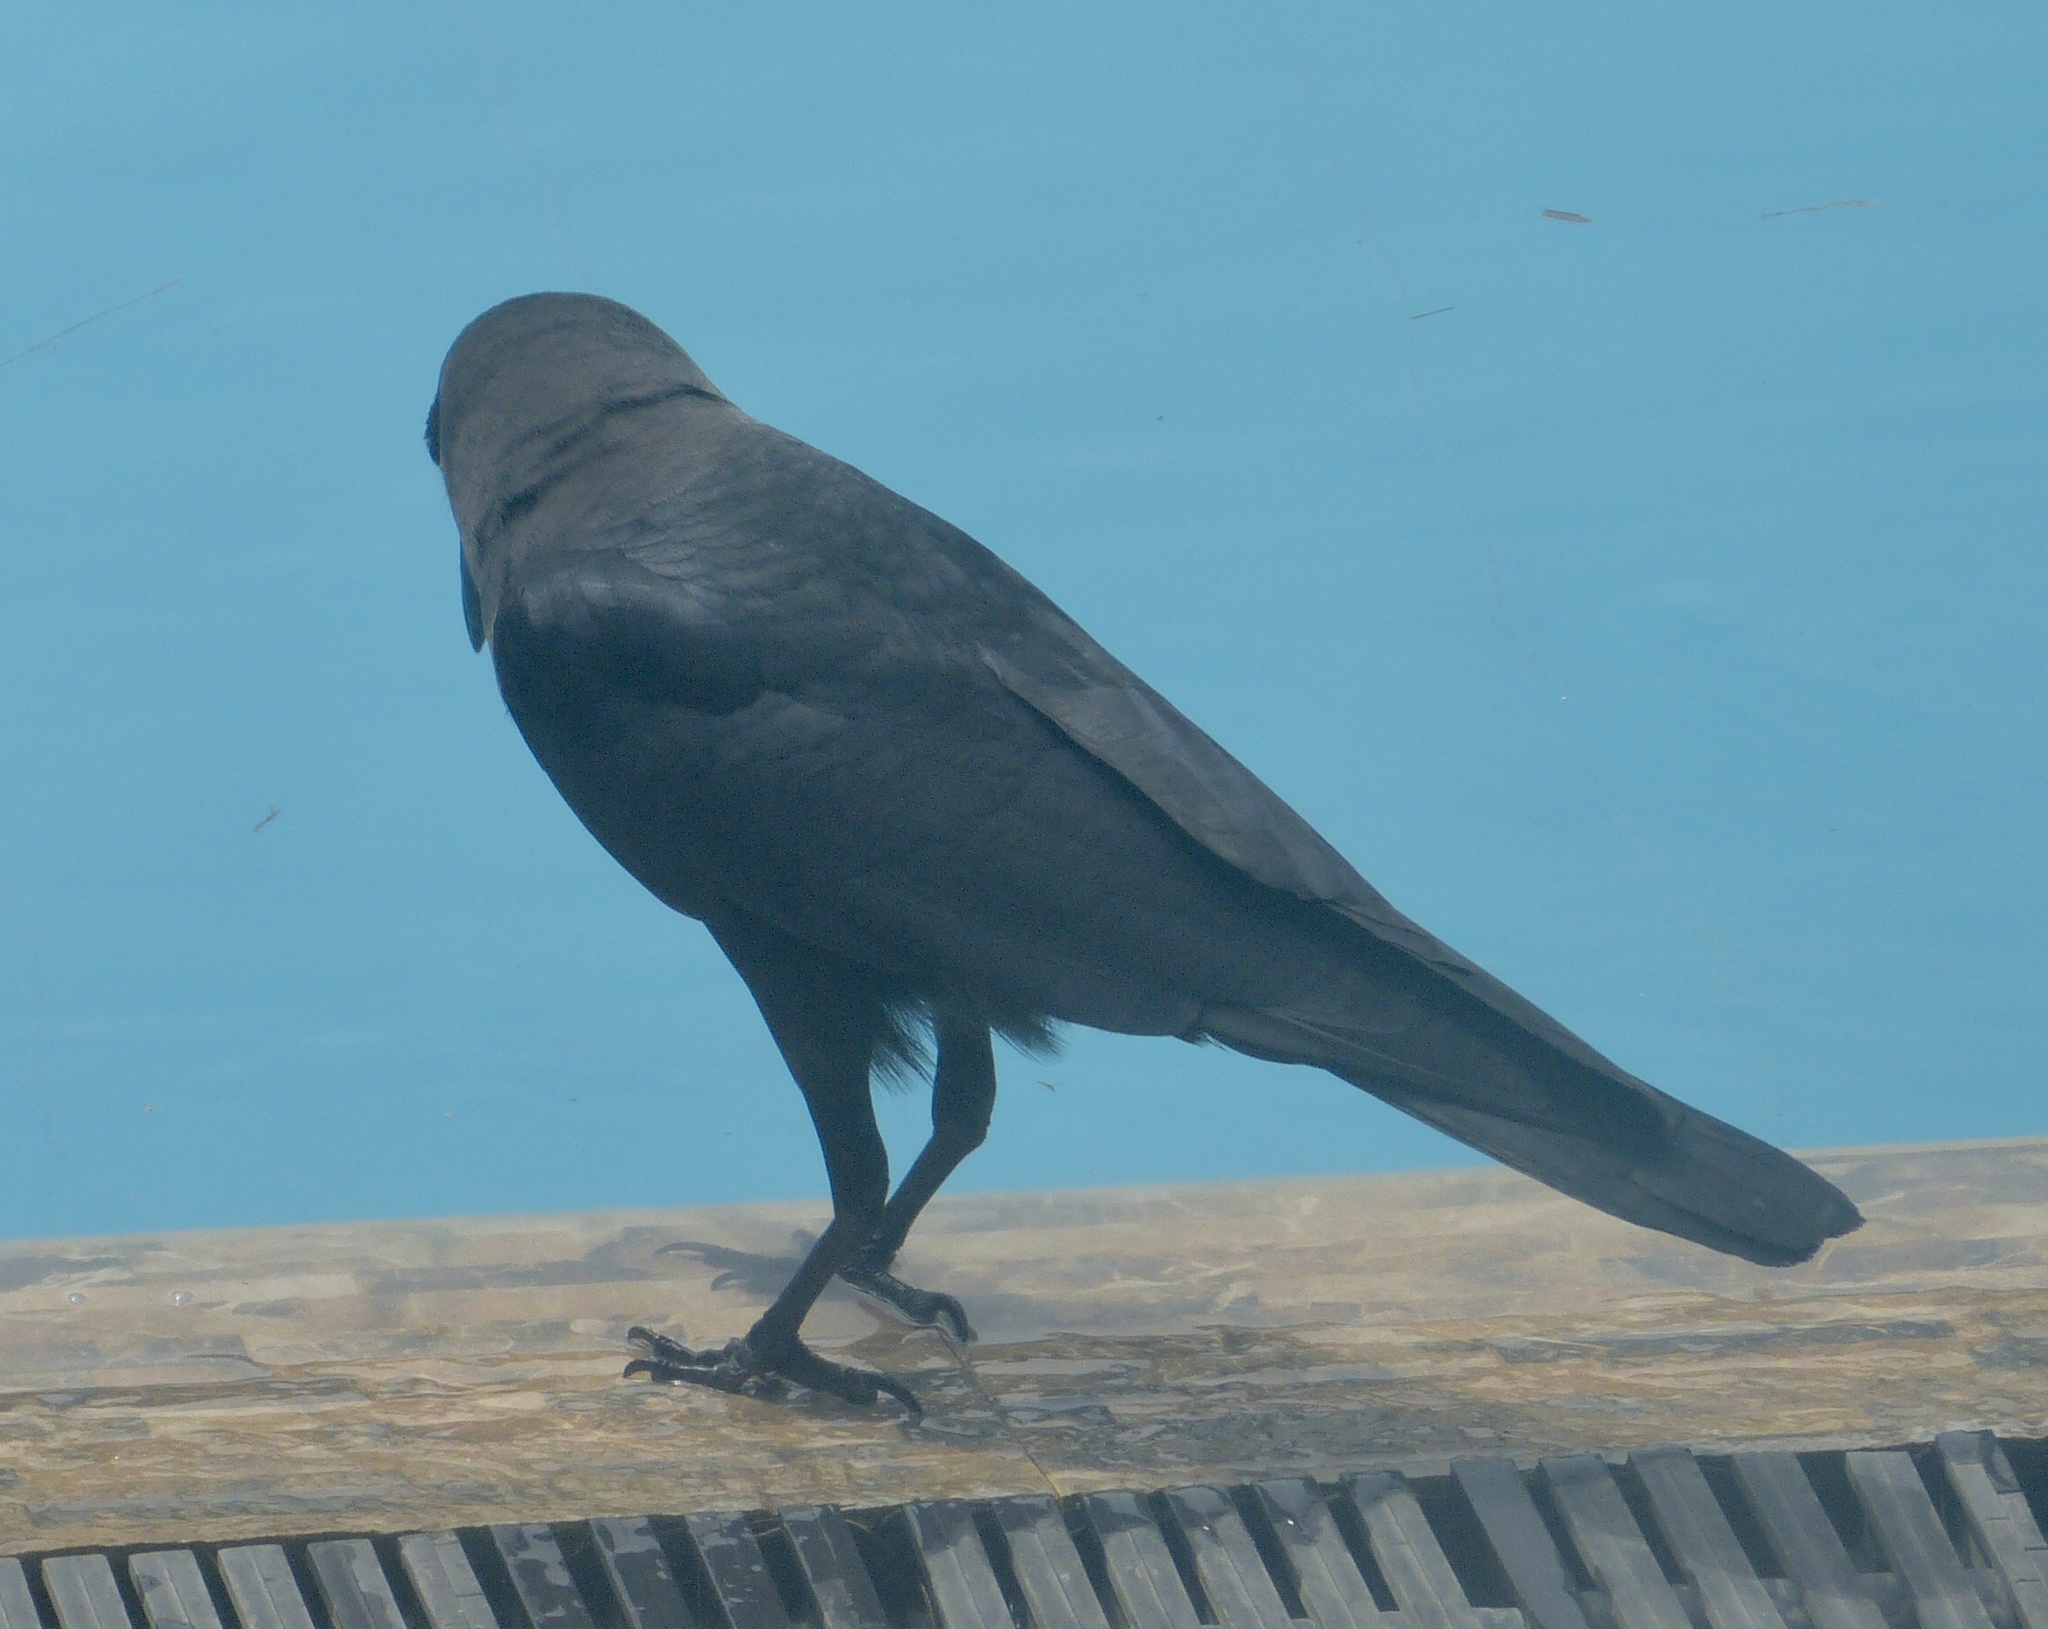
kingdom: Animalia
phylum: Chordata
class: Aves
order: Passeriformes
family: Corvidae
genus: Corvus
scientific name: Corvus splendens
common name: House crow
